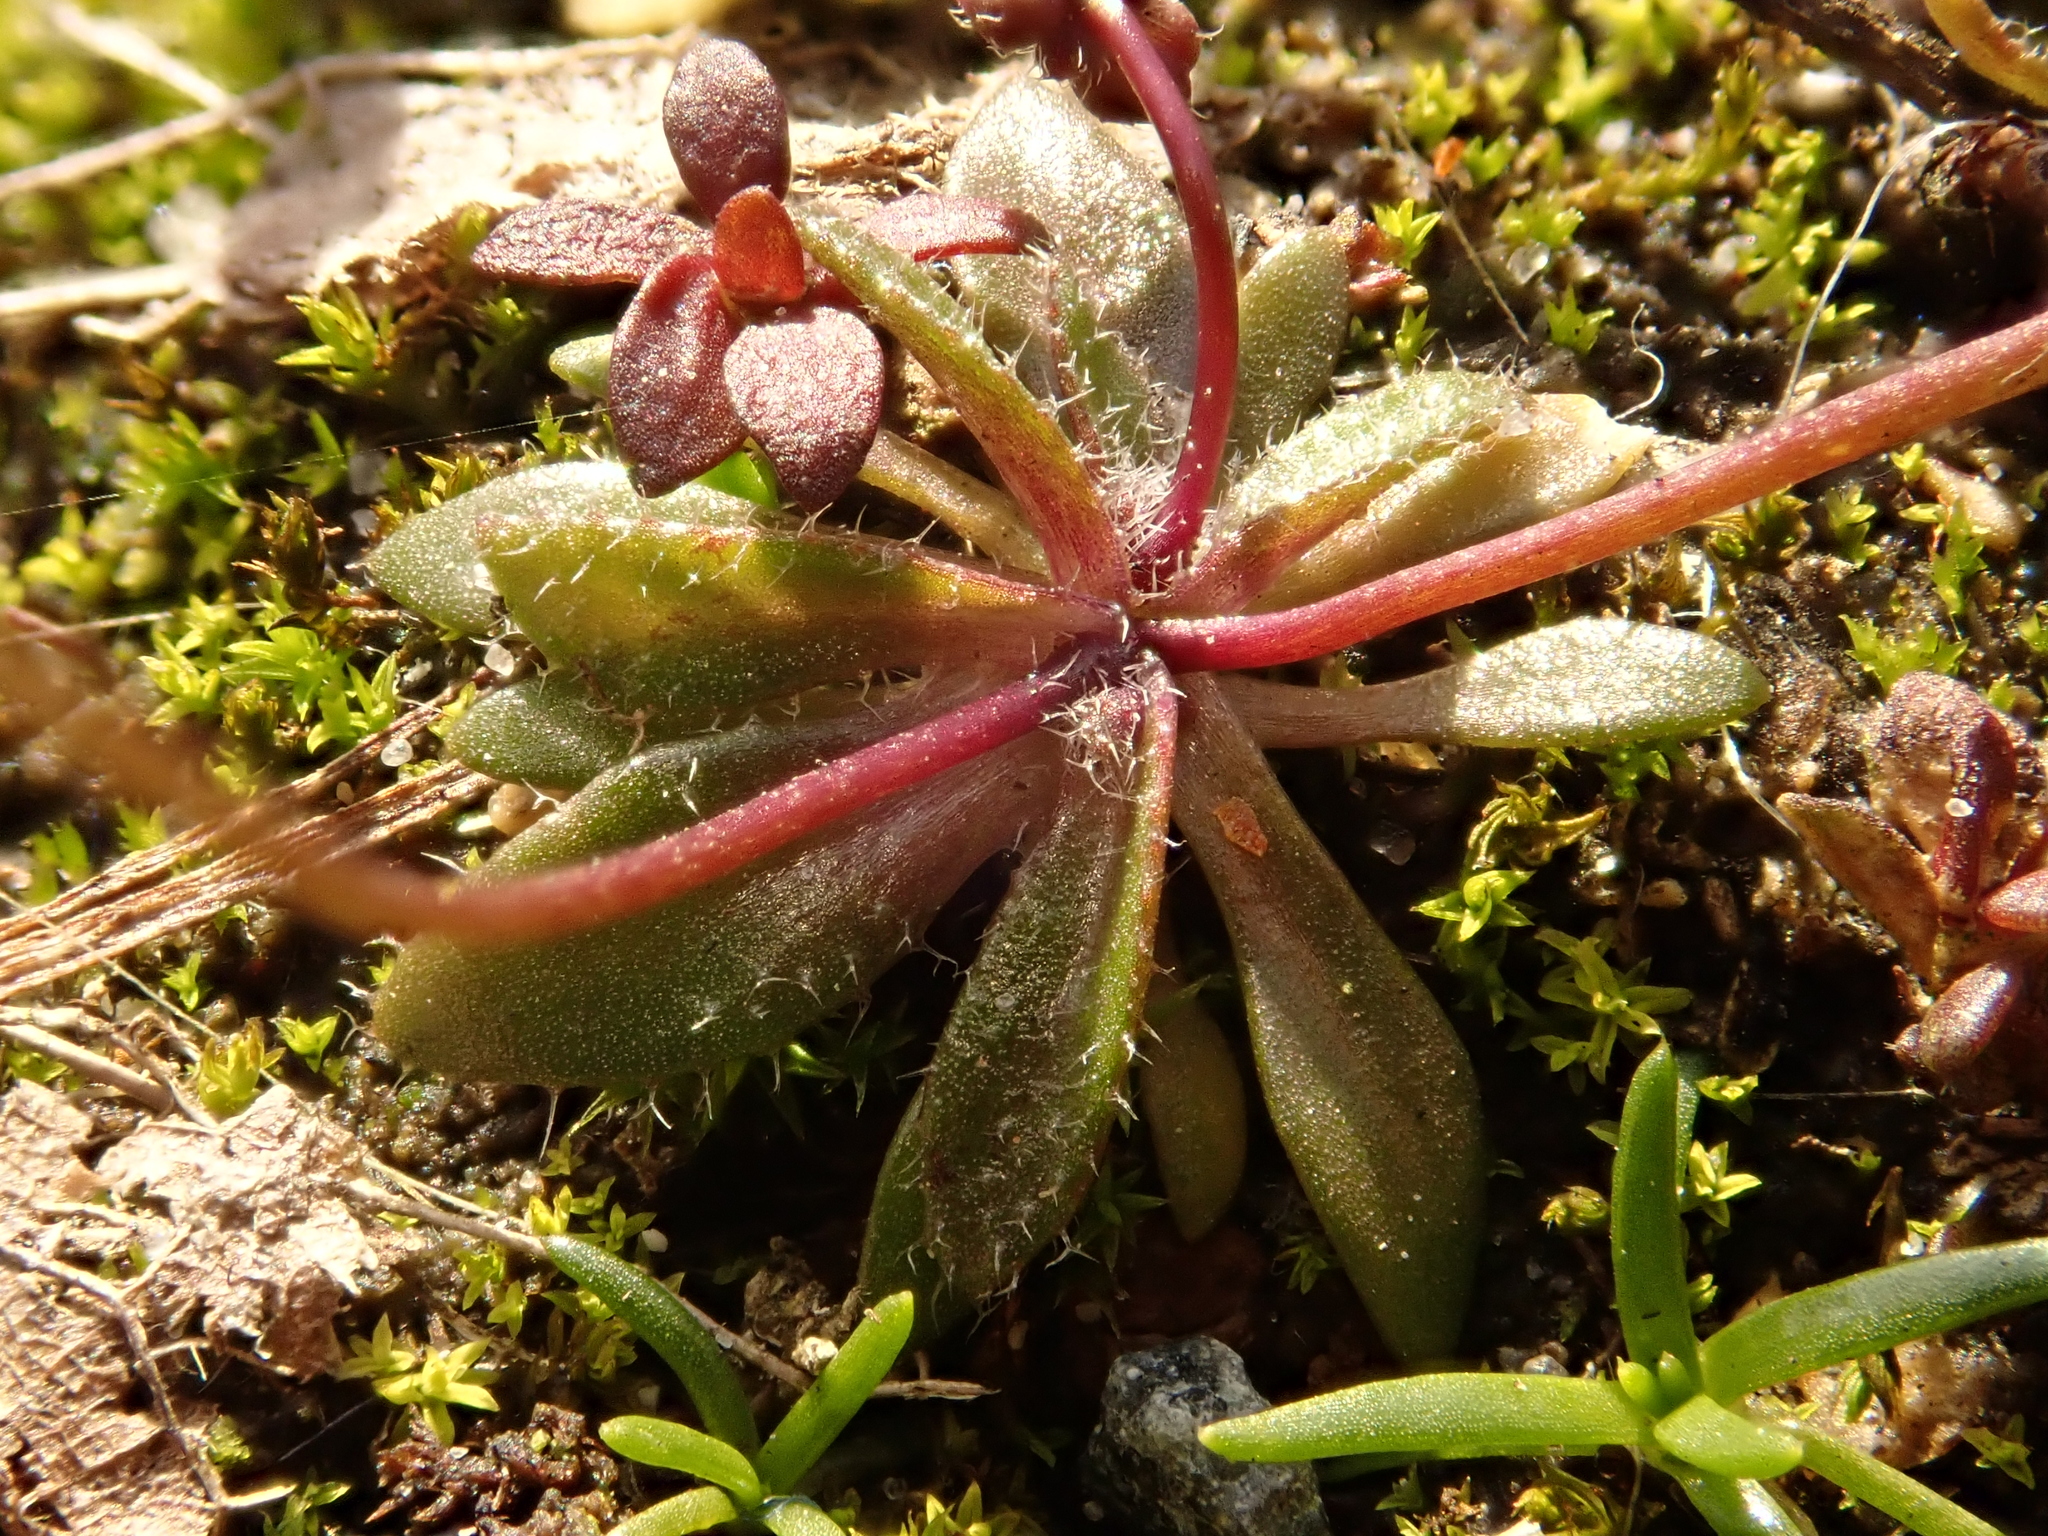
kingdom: Plantae
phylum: Tracheophyta
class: Magnoliopsida
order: Brassicales
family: Brassicaceae
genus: Draba
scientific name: Draba verna
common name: Spring draba
